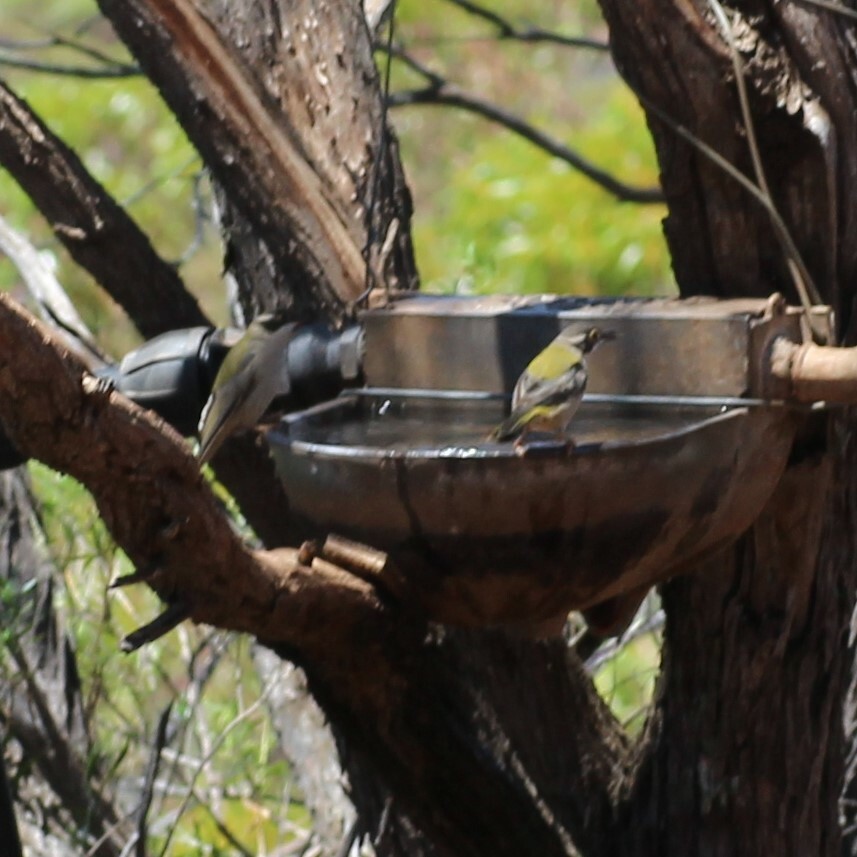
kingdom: Animalia
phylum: Chordata
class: Aves
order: Passeriformes
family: Meliphagidae
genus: Melithreptus
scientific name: Melithreptus brevirostris
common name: Brown-headed honeyeater
